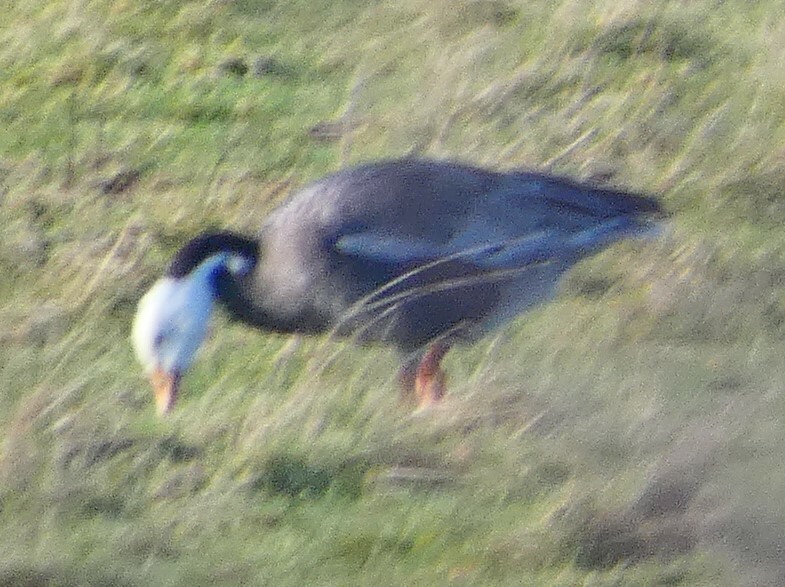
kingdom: Animalia
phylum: Chordata
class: Aves
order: Anseriformes
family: Anatidae
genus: Anser
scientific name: Anser caerulescens
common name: Snow goose
